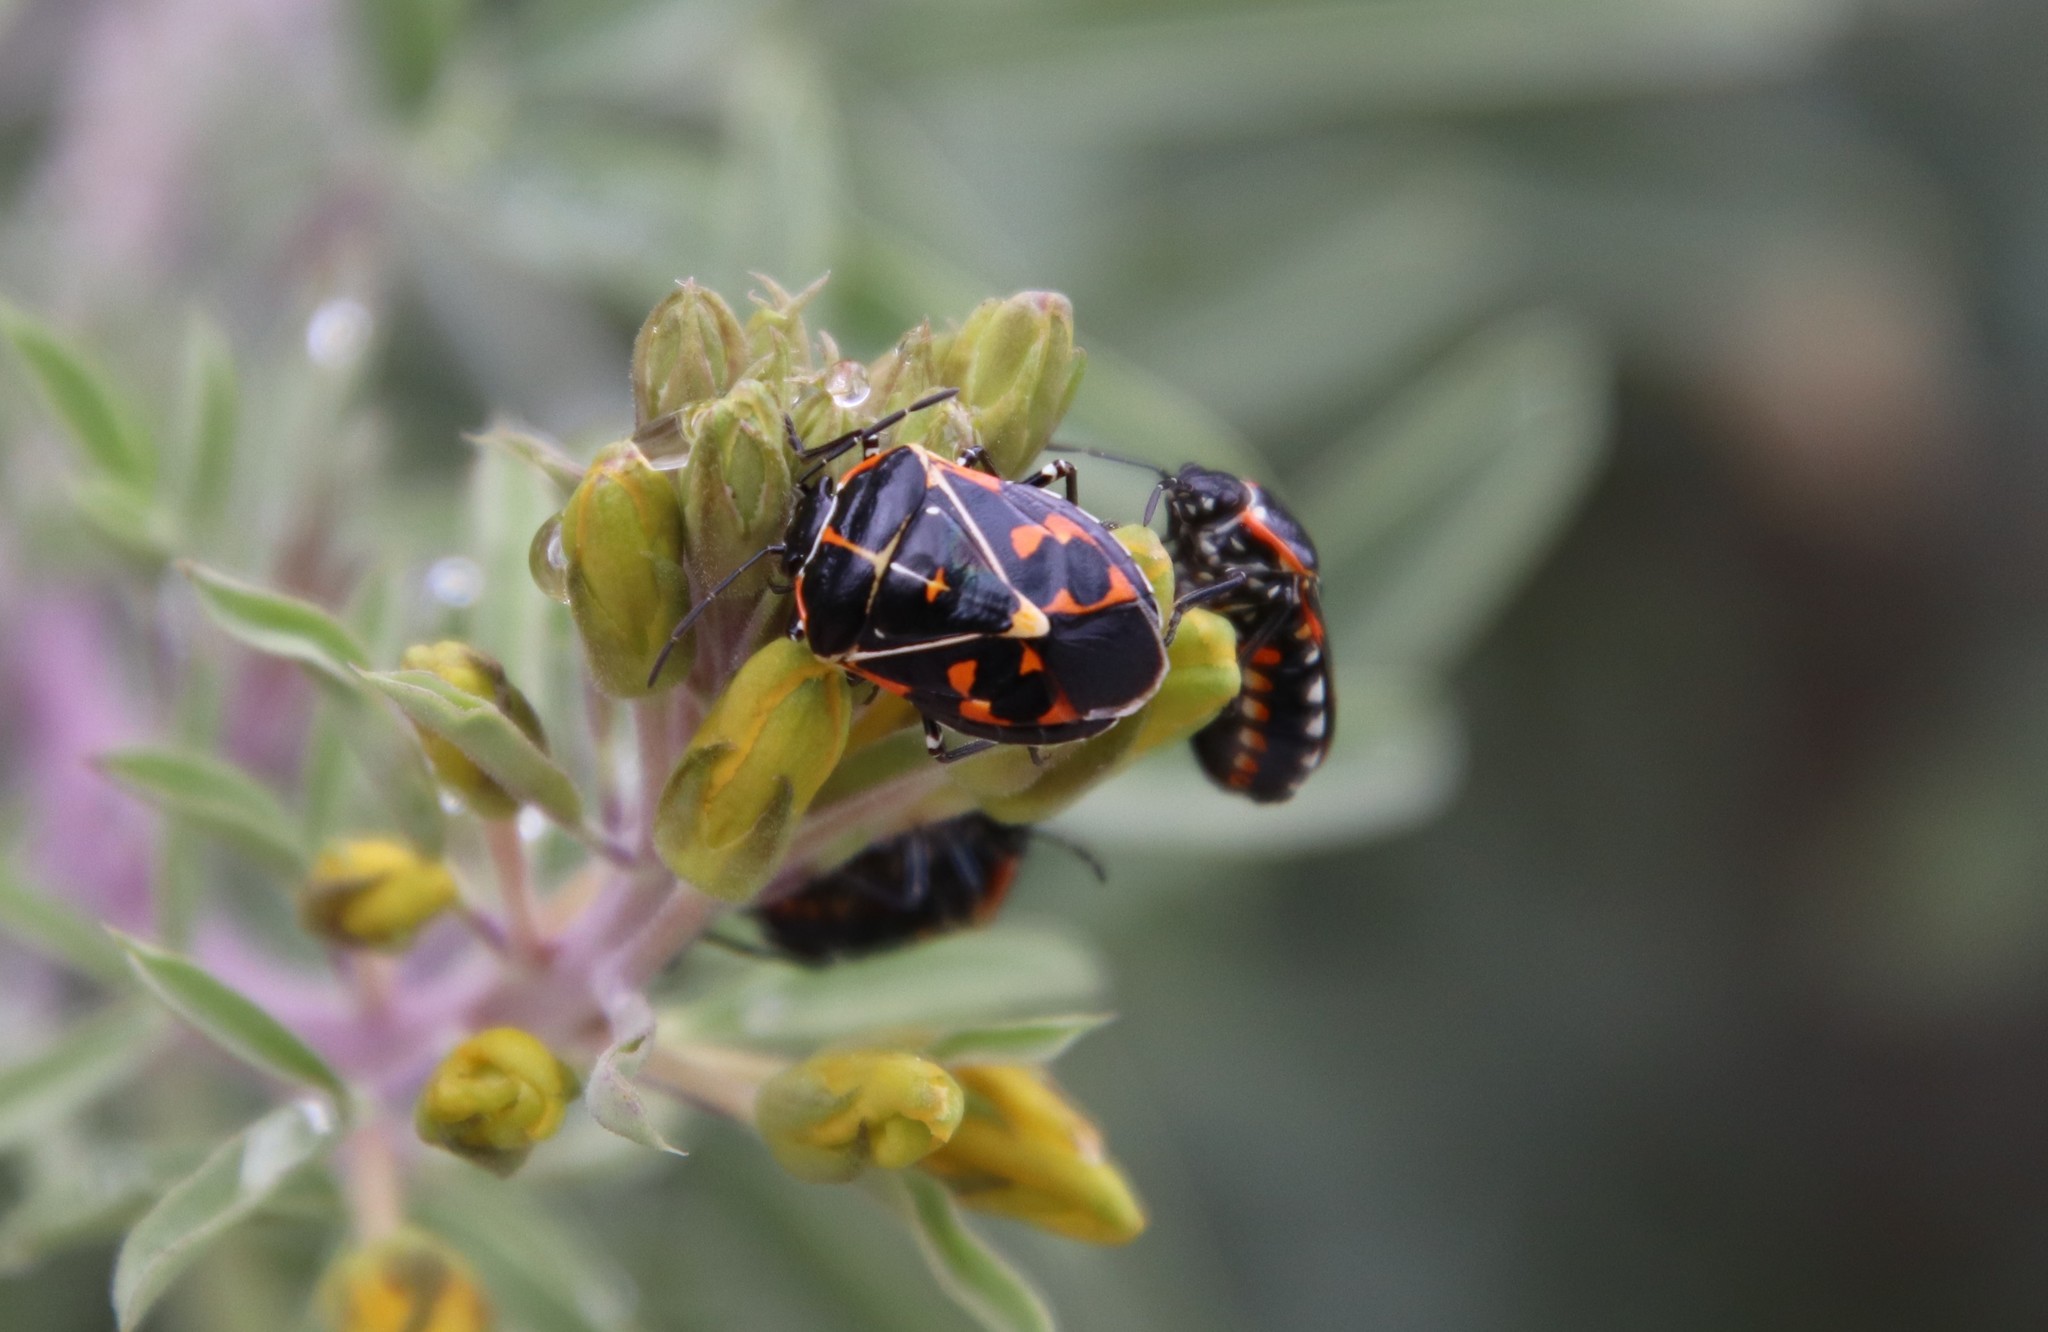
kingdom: Animalia
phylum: Arthropoda
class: Insecta
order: Hemiptera
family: Pentatomidae
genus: Murgantia
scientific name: Murgantia histrionica
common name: Harlequin bug
